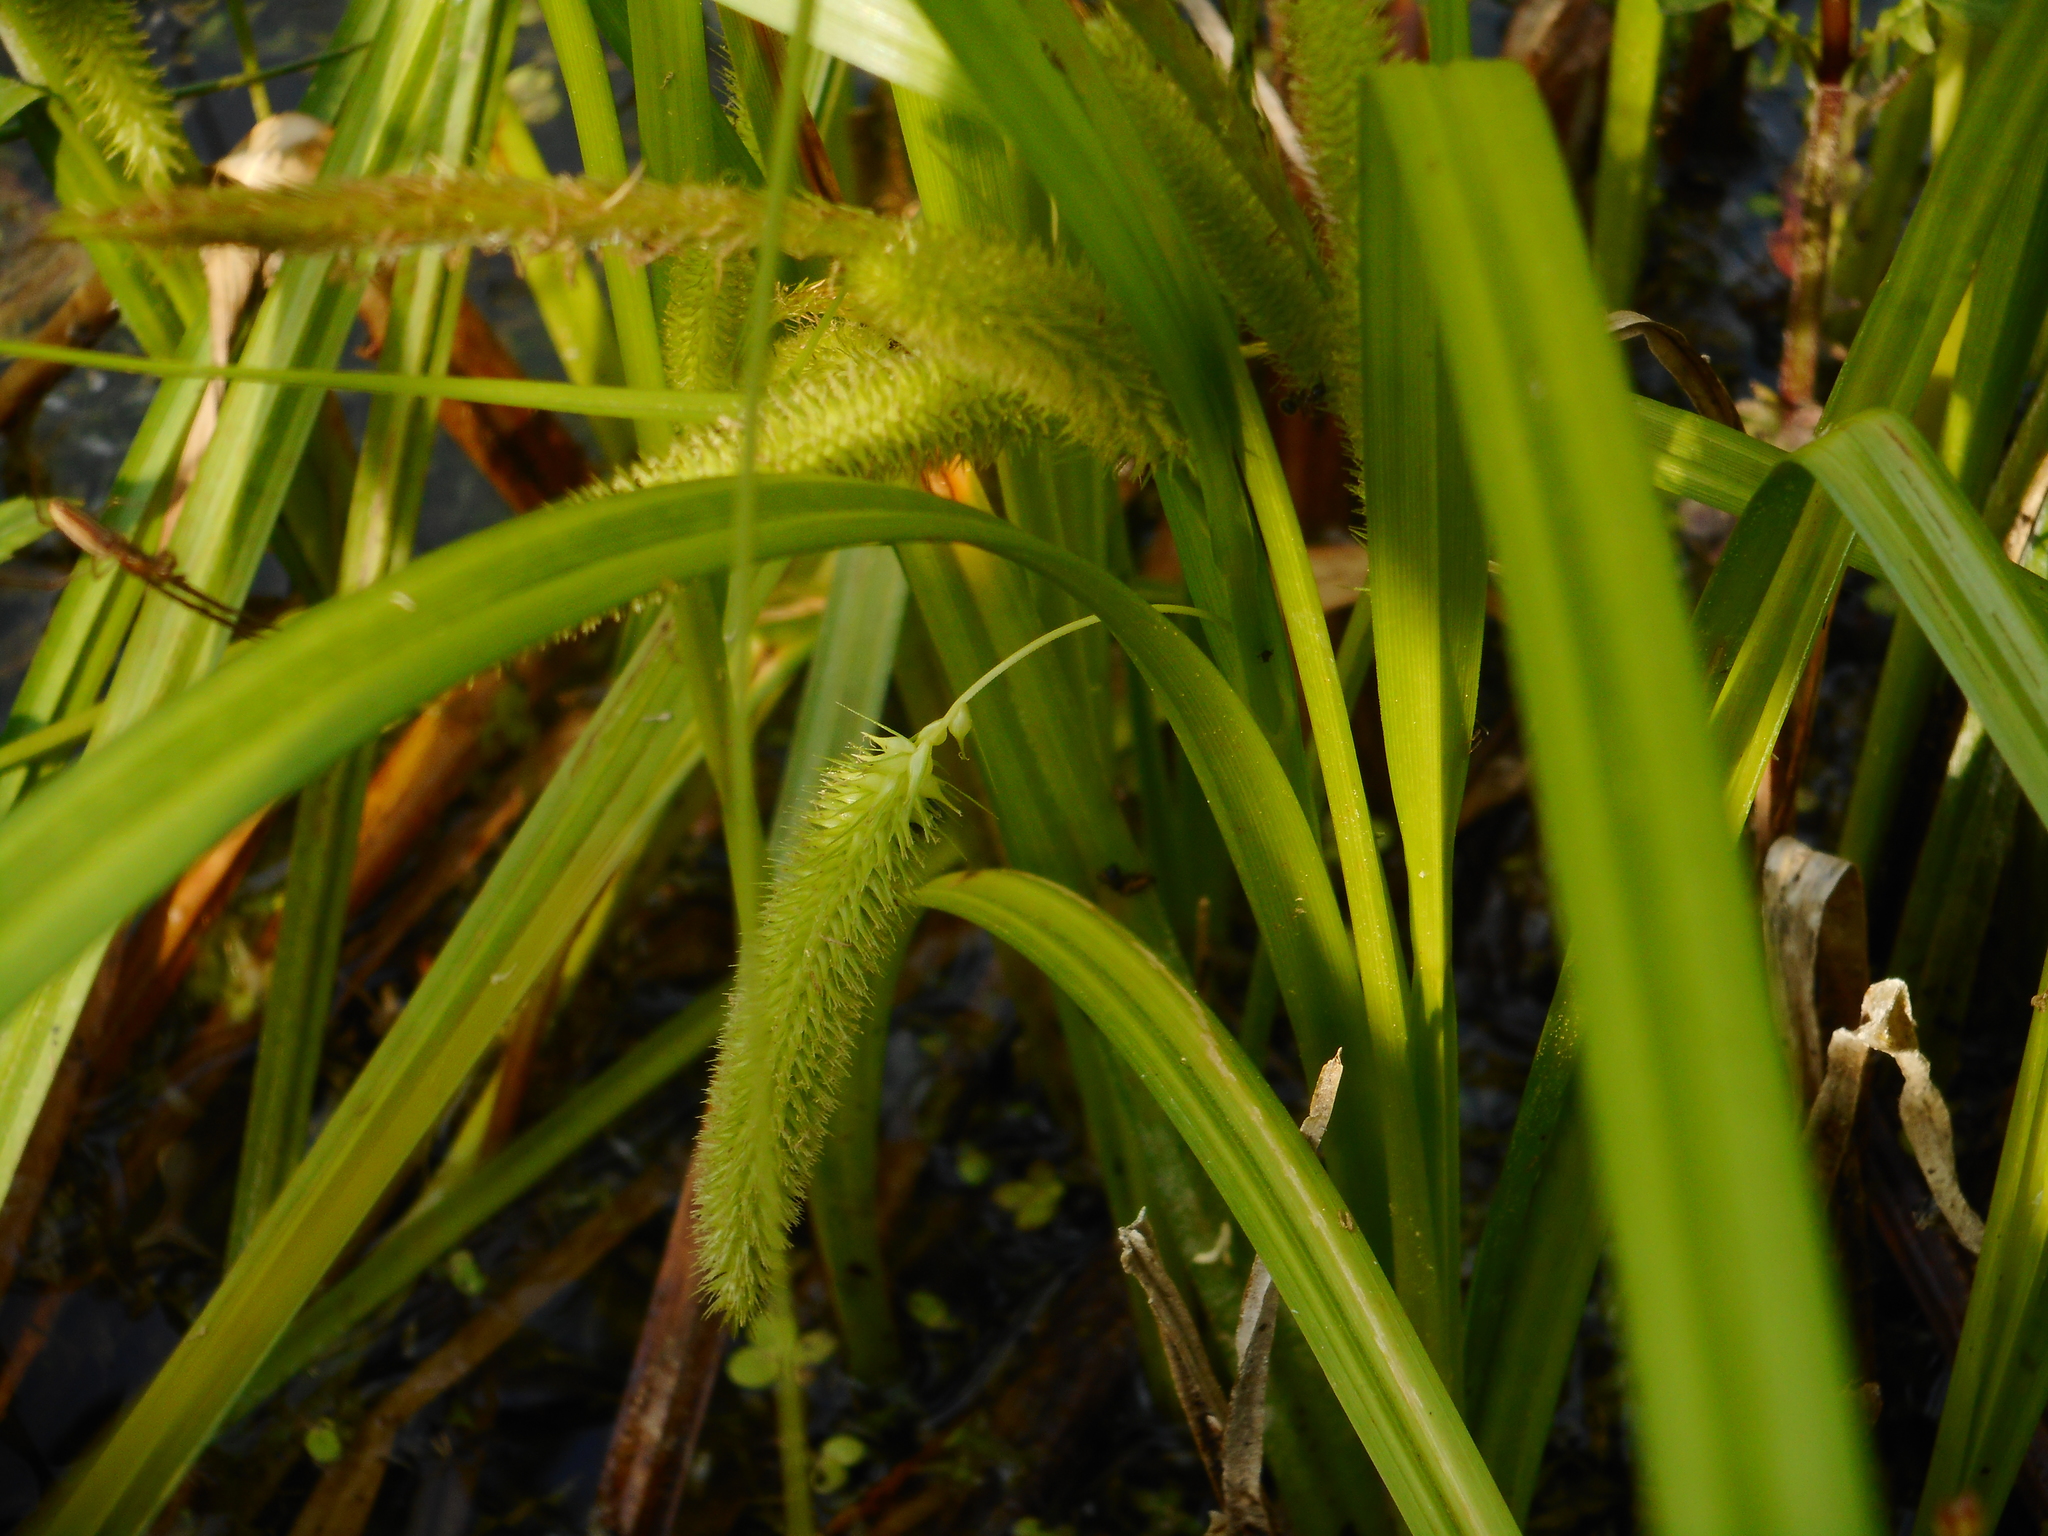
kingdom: Plantae
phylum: Tracheophyta
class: Liliopsida
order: Poales
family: Cyperaceae
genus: Carex
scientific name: Carex pseudocyperus
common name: Cyperus sedge
